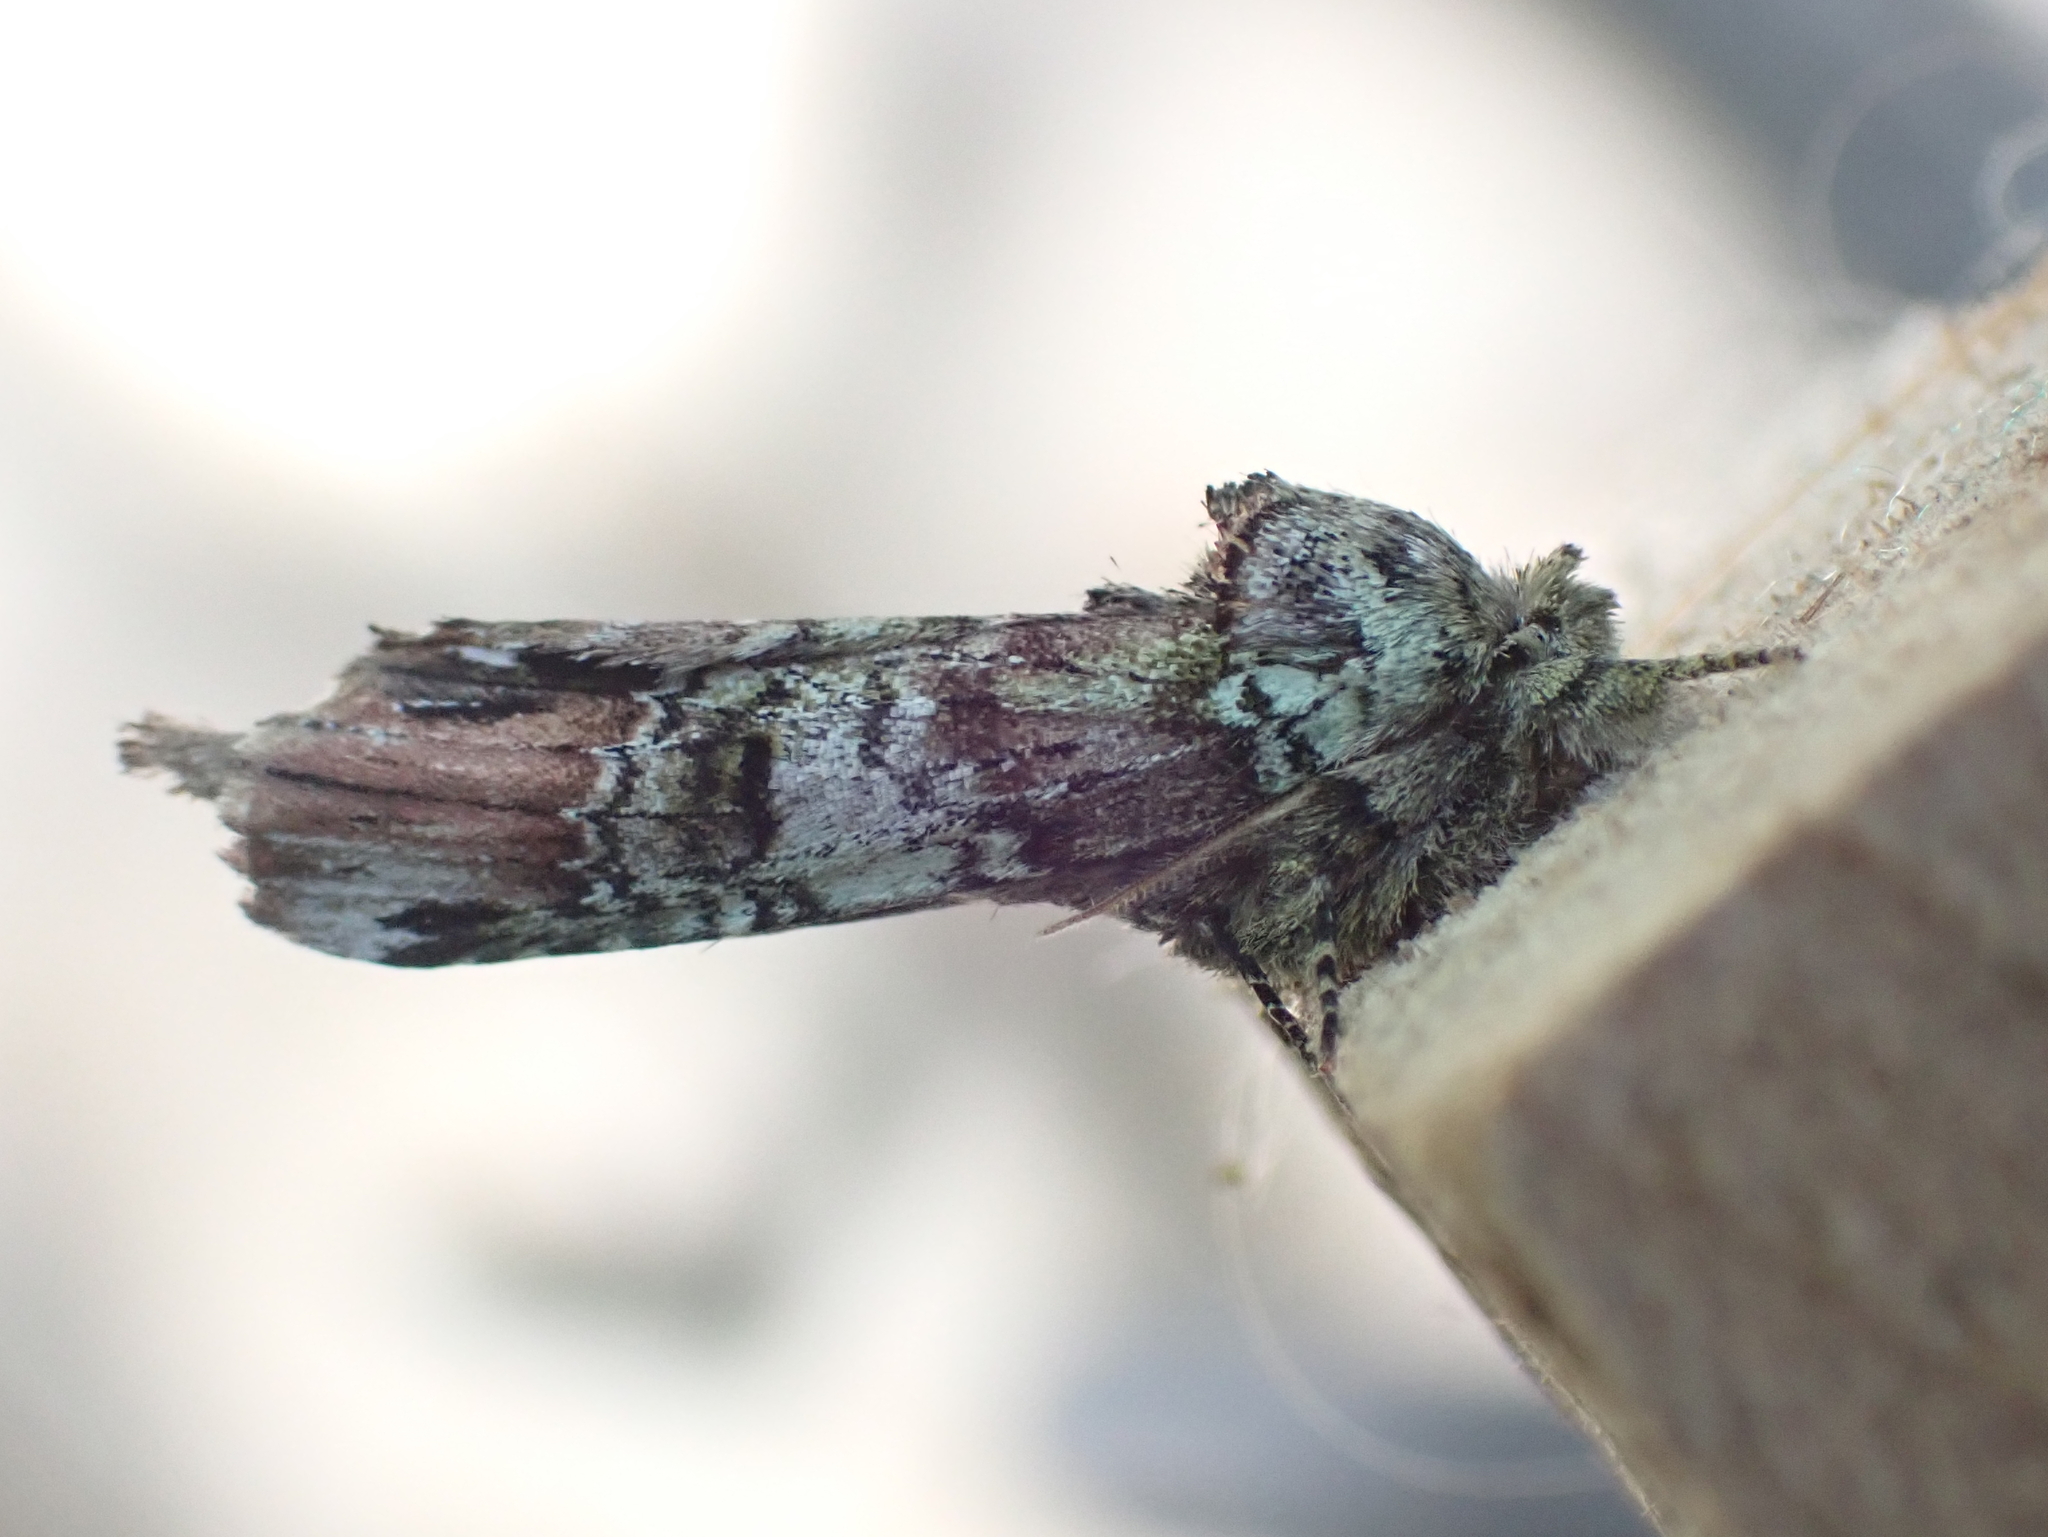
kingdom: Animalia
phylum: Arthropoda
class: Insecta
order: Lepidoptera
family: Notodontidae
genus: Schizura
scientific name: Schizura
